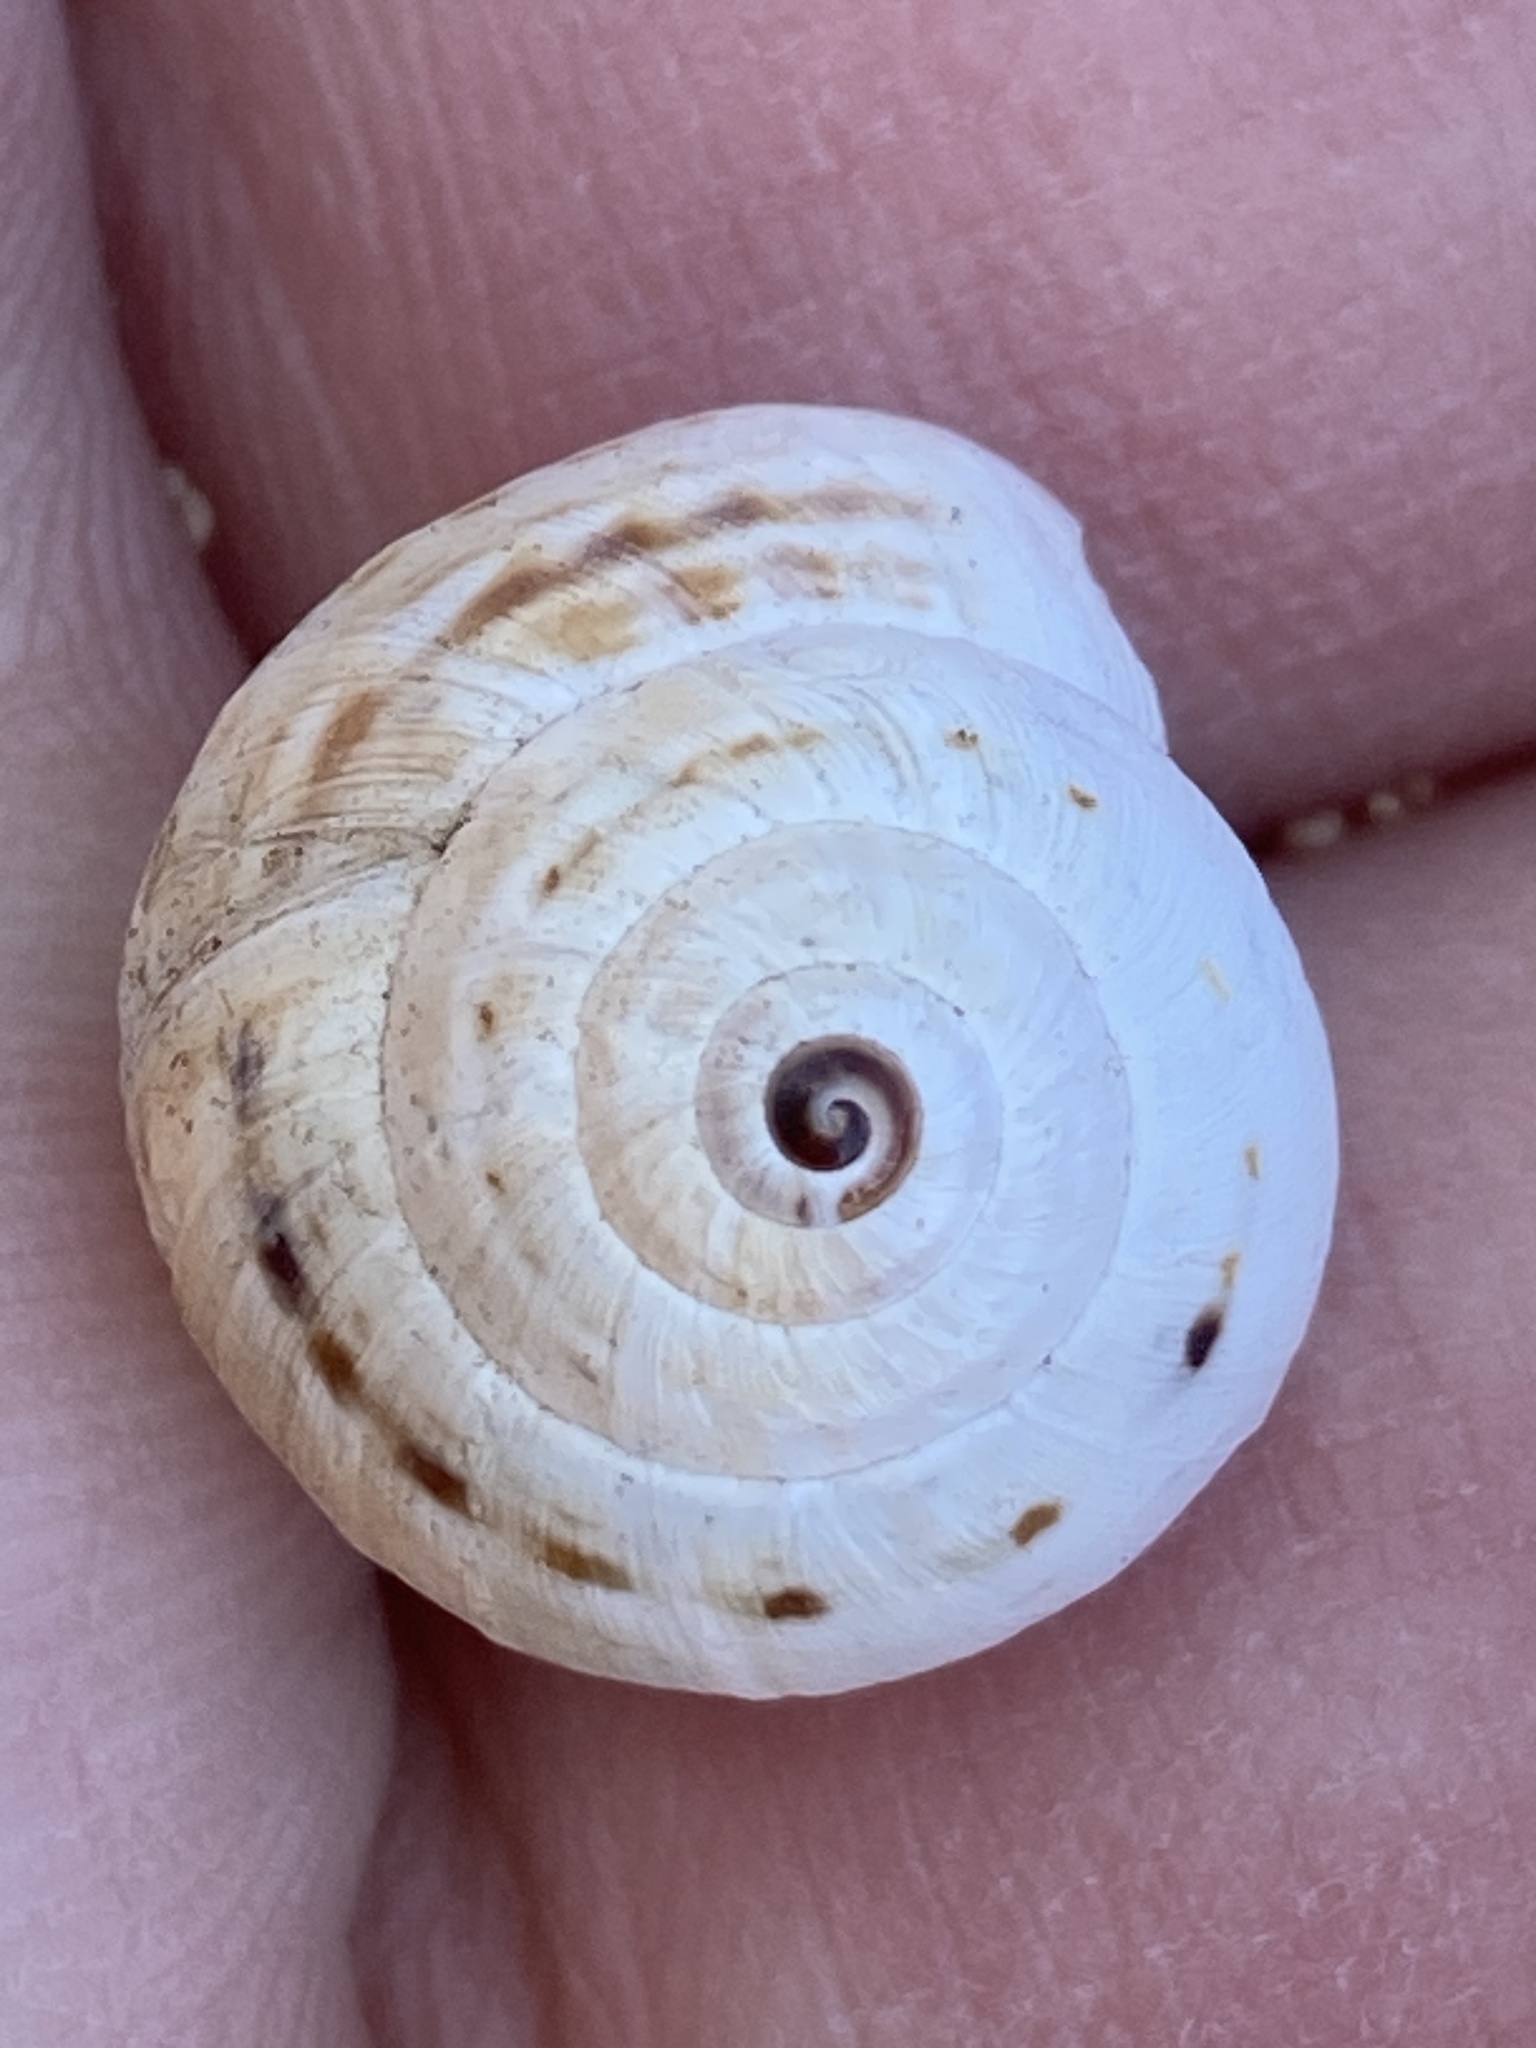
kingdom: Animalia
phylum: Mollusca
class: Gastropoda
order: Stylommatophora
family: Helicidae
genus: Theba
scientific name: Theba pisana
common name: White snail
